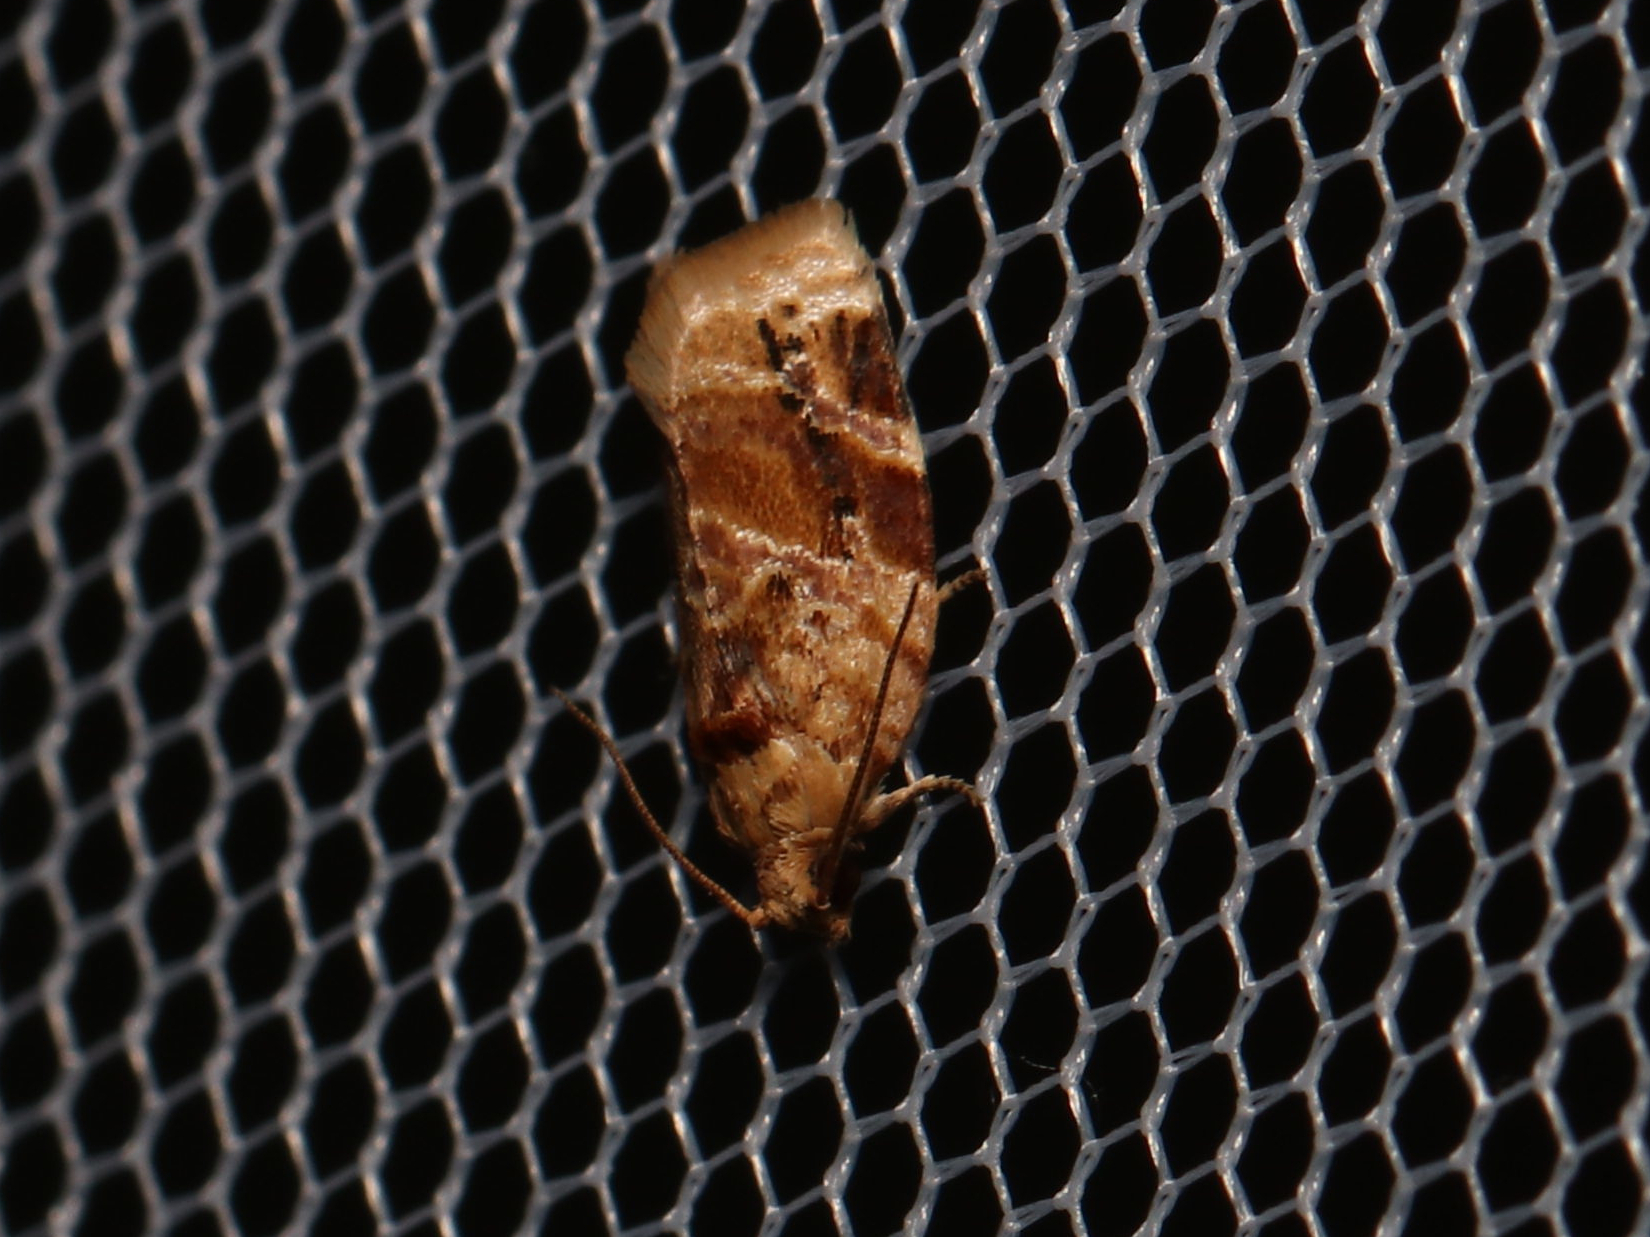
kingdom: Animalia
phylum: Arthropoda
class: Insecta
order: Lepidoptera
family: Tortricidae
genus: Argyrotaenia
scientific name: Argyrotaenia velutinana
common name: Red-banded leafroller moth
